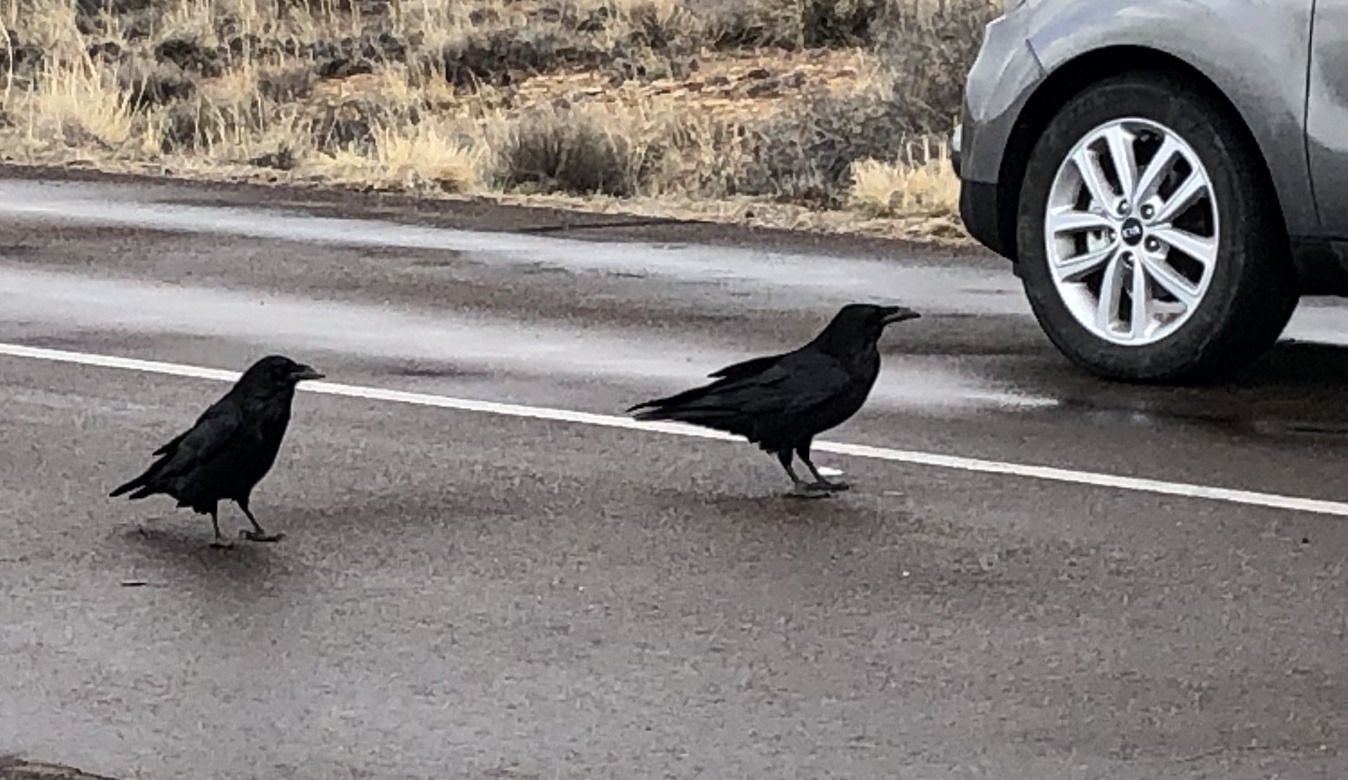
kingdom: Animalia
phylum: Chordata
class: Aves
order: Passeriformes
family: Corvidae
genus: Corvus
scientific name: Corvus corax
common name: Common raven
